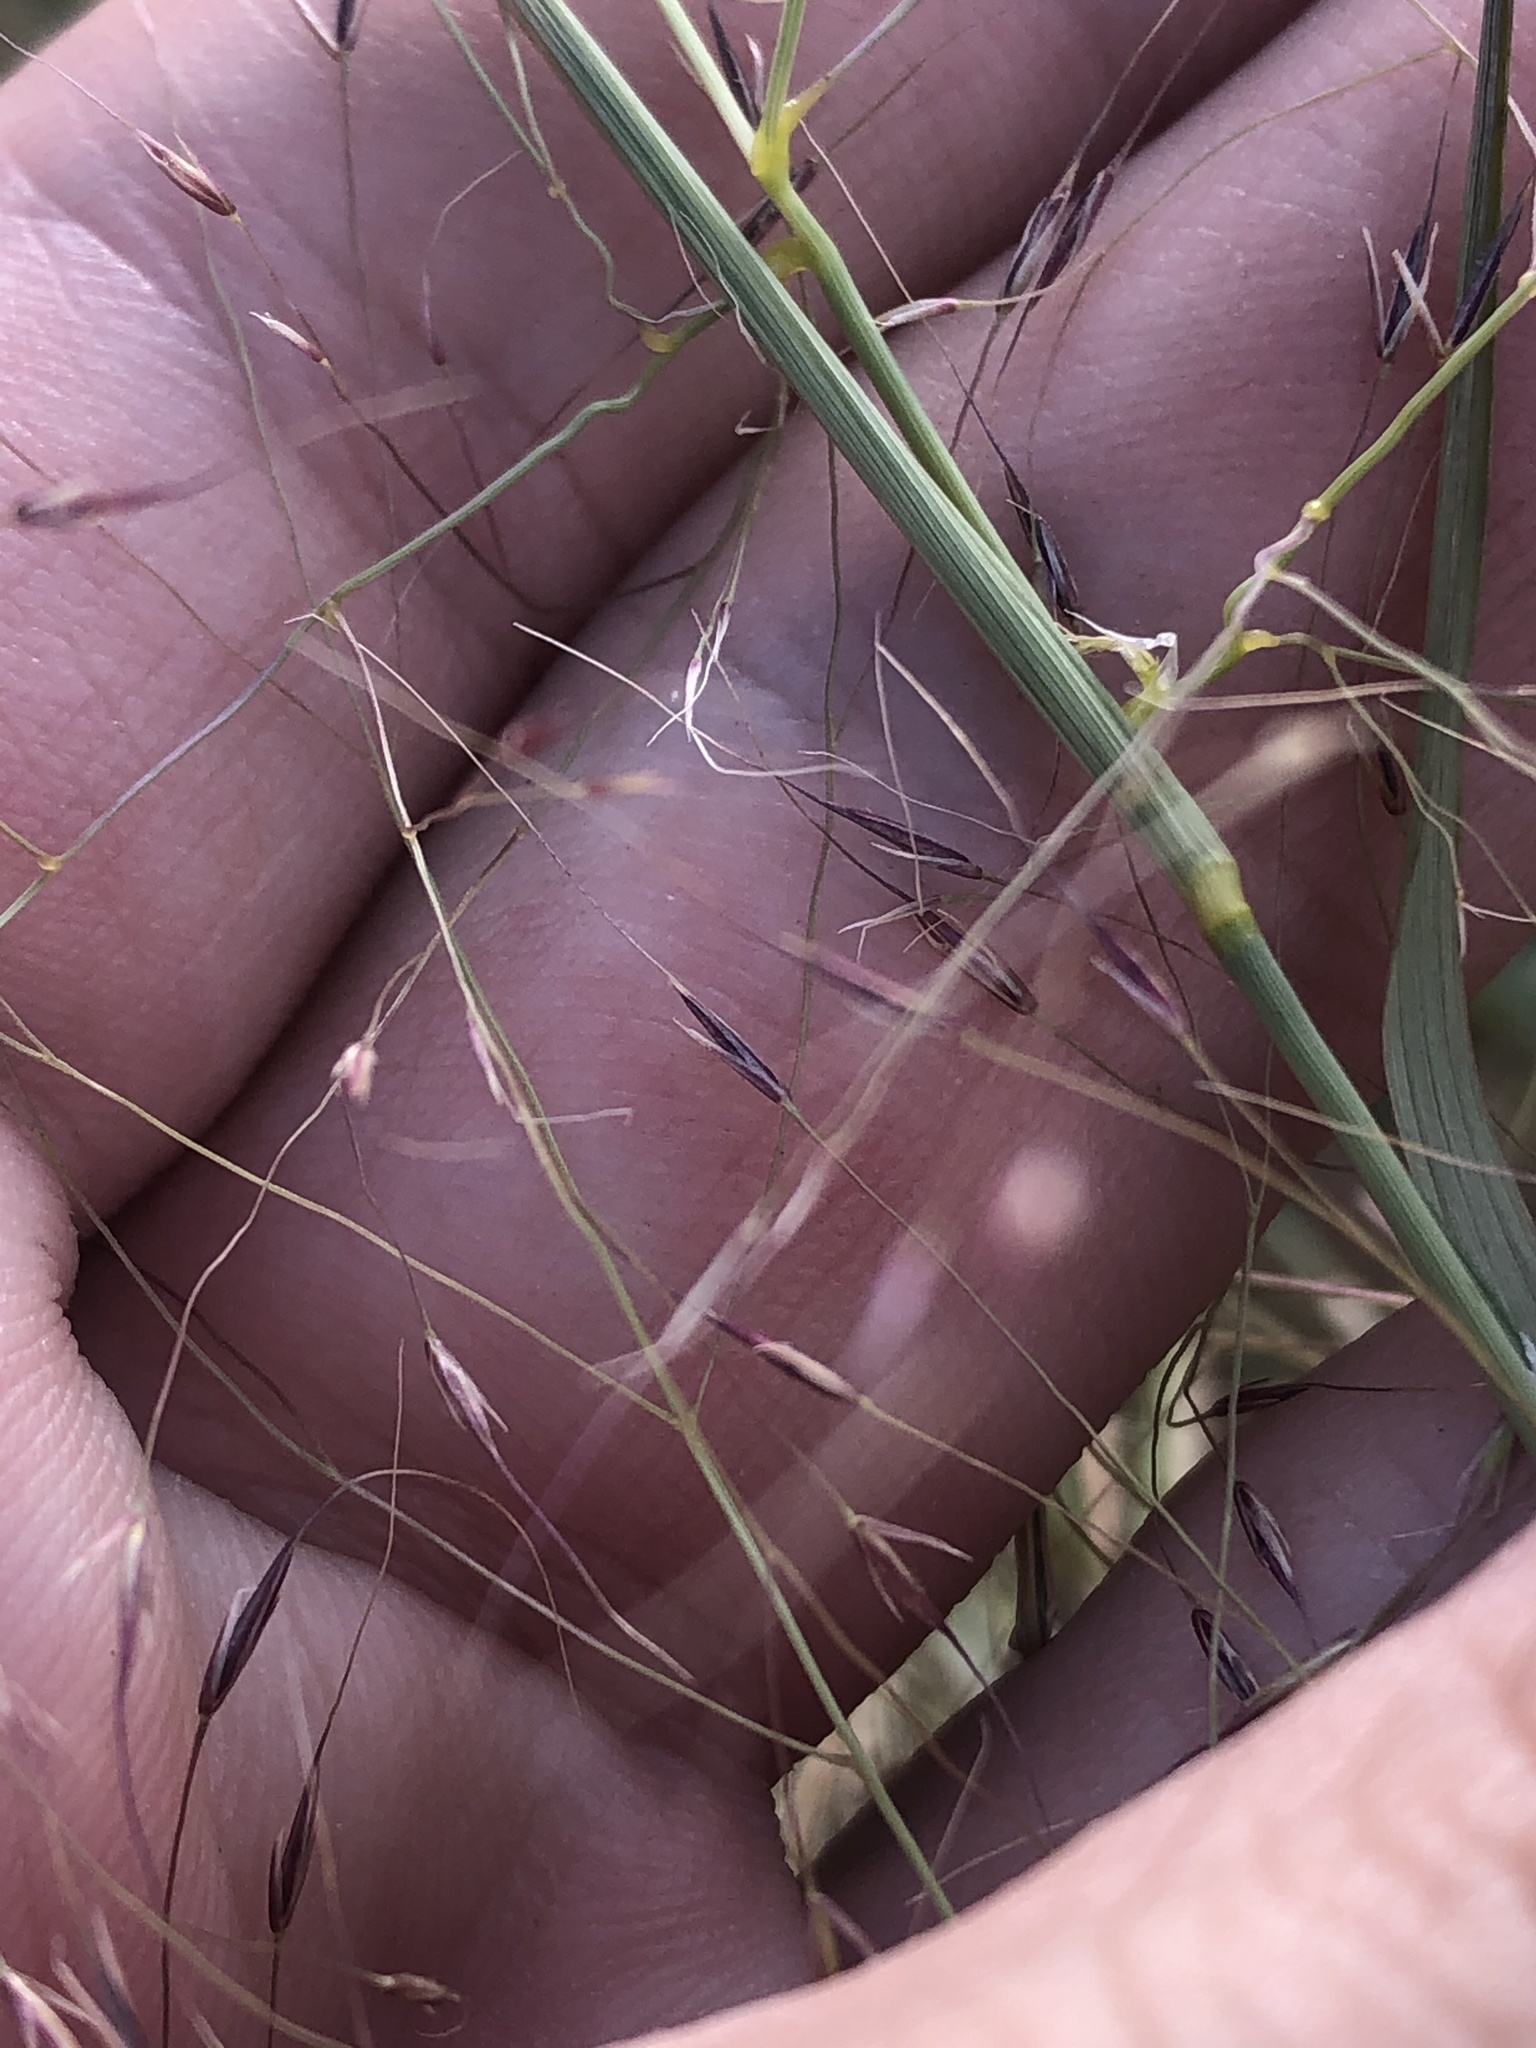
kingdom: Plantae
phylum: Tracheophyta
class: Liliopsida
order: Poales
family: Poaceae
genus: Muhlenbergia
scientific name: Muhlenbergia porteri
